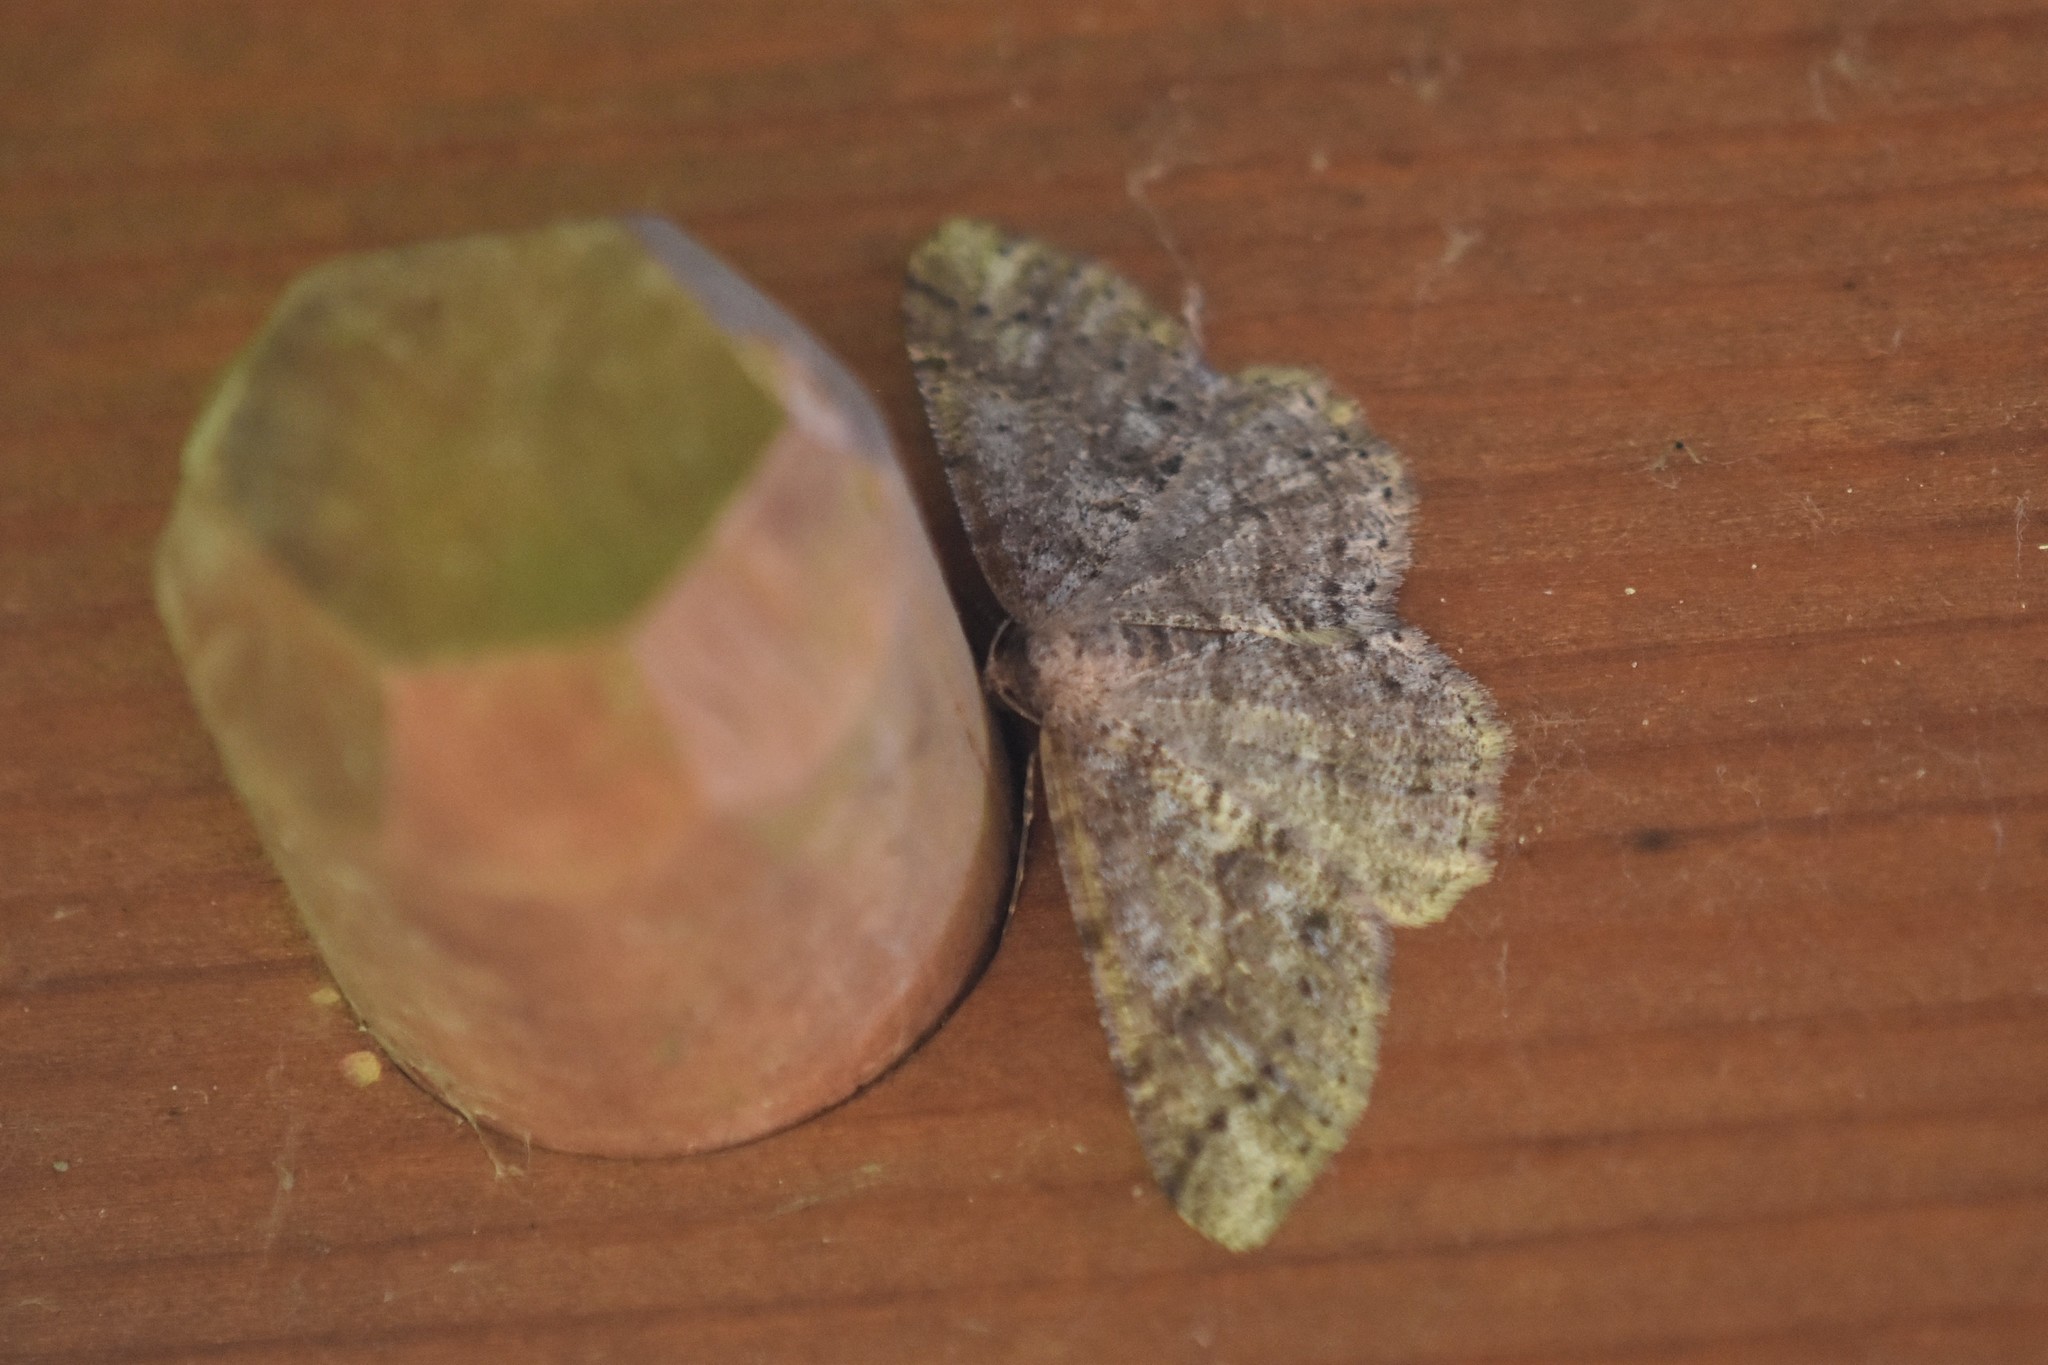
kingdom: Animalia
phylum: Arthropoda
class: Insecta
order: Lepidoptera
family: Geometridae
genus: Melanolophia
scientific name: Melanolophia imitata
